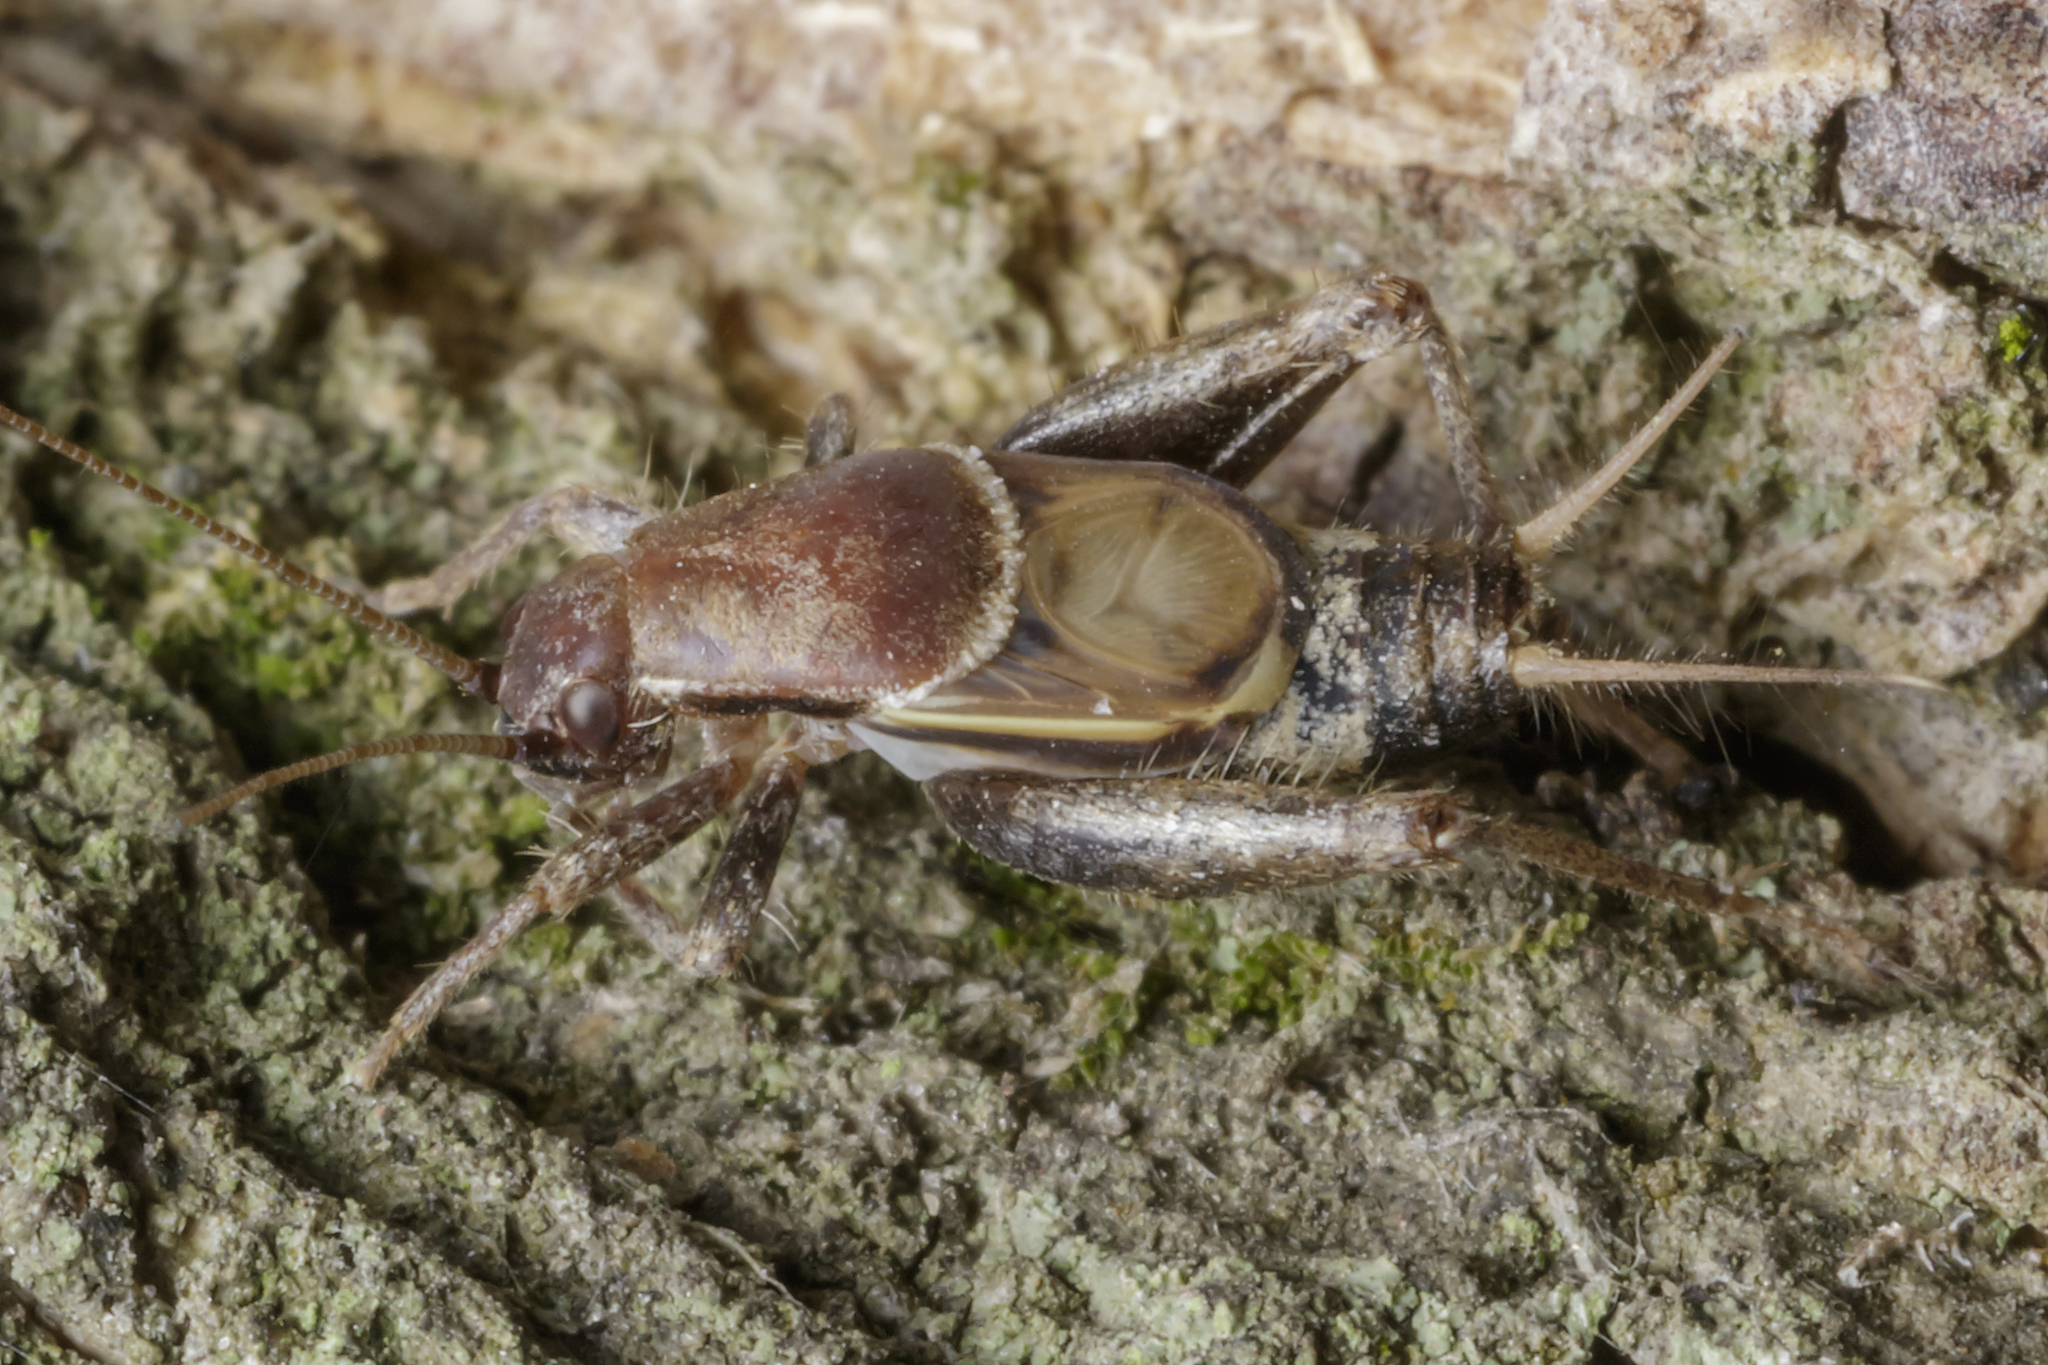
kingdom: Animalia
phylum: Arthropoda
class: Insecta
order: Orthoptera
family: Mogoplistidae
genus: Ornebius
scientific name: Ornebius alatus
